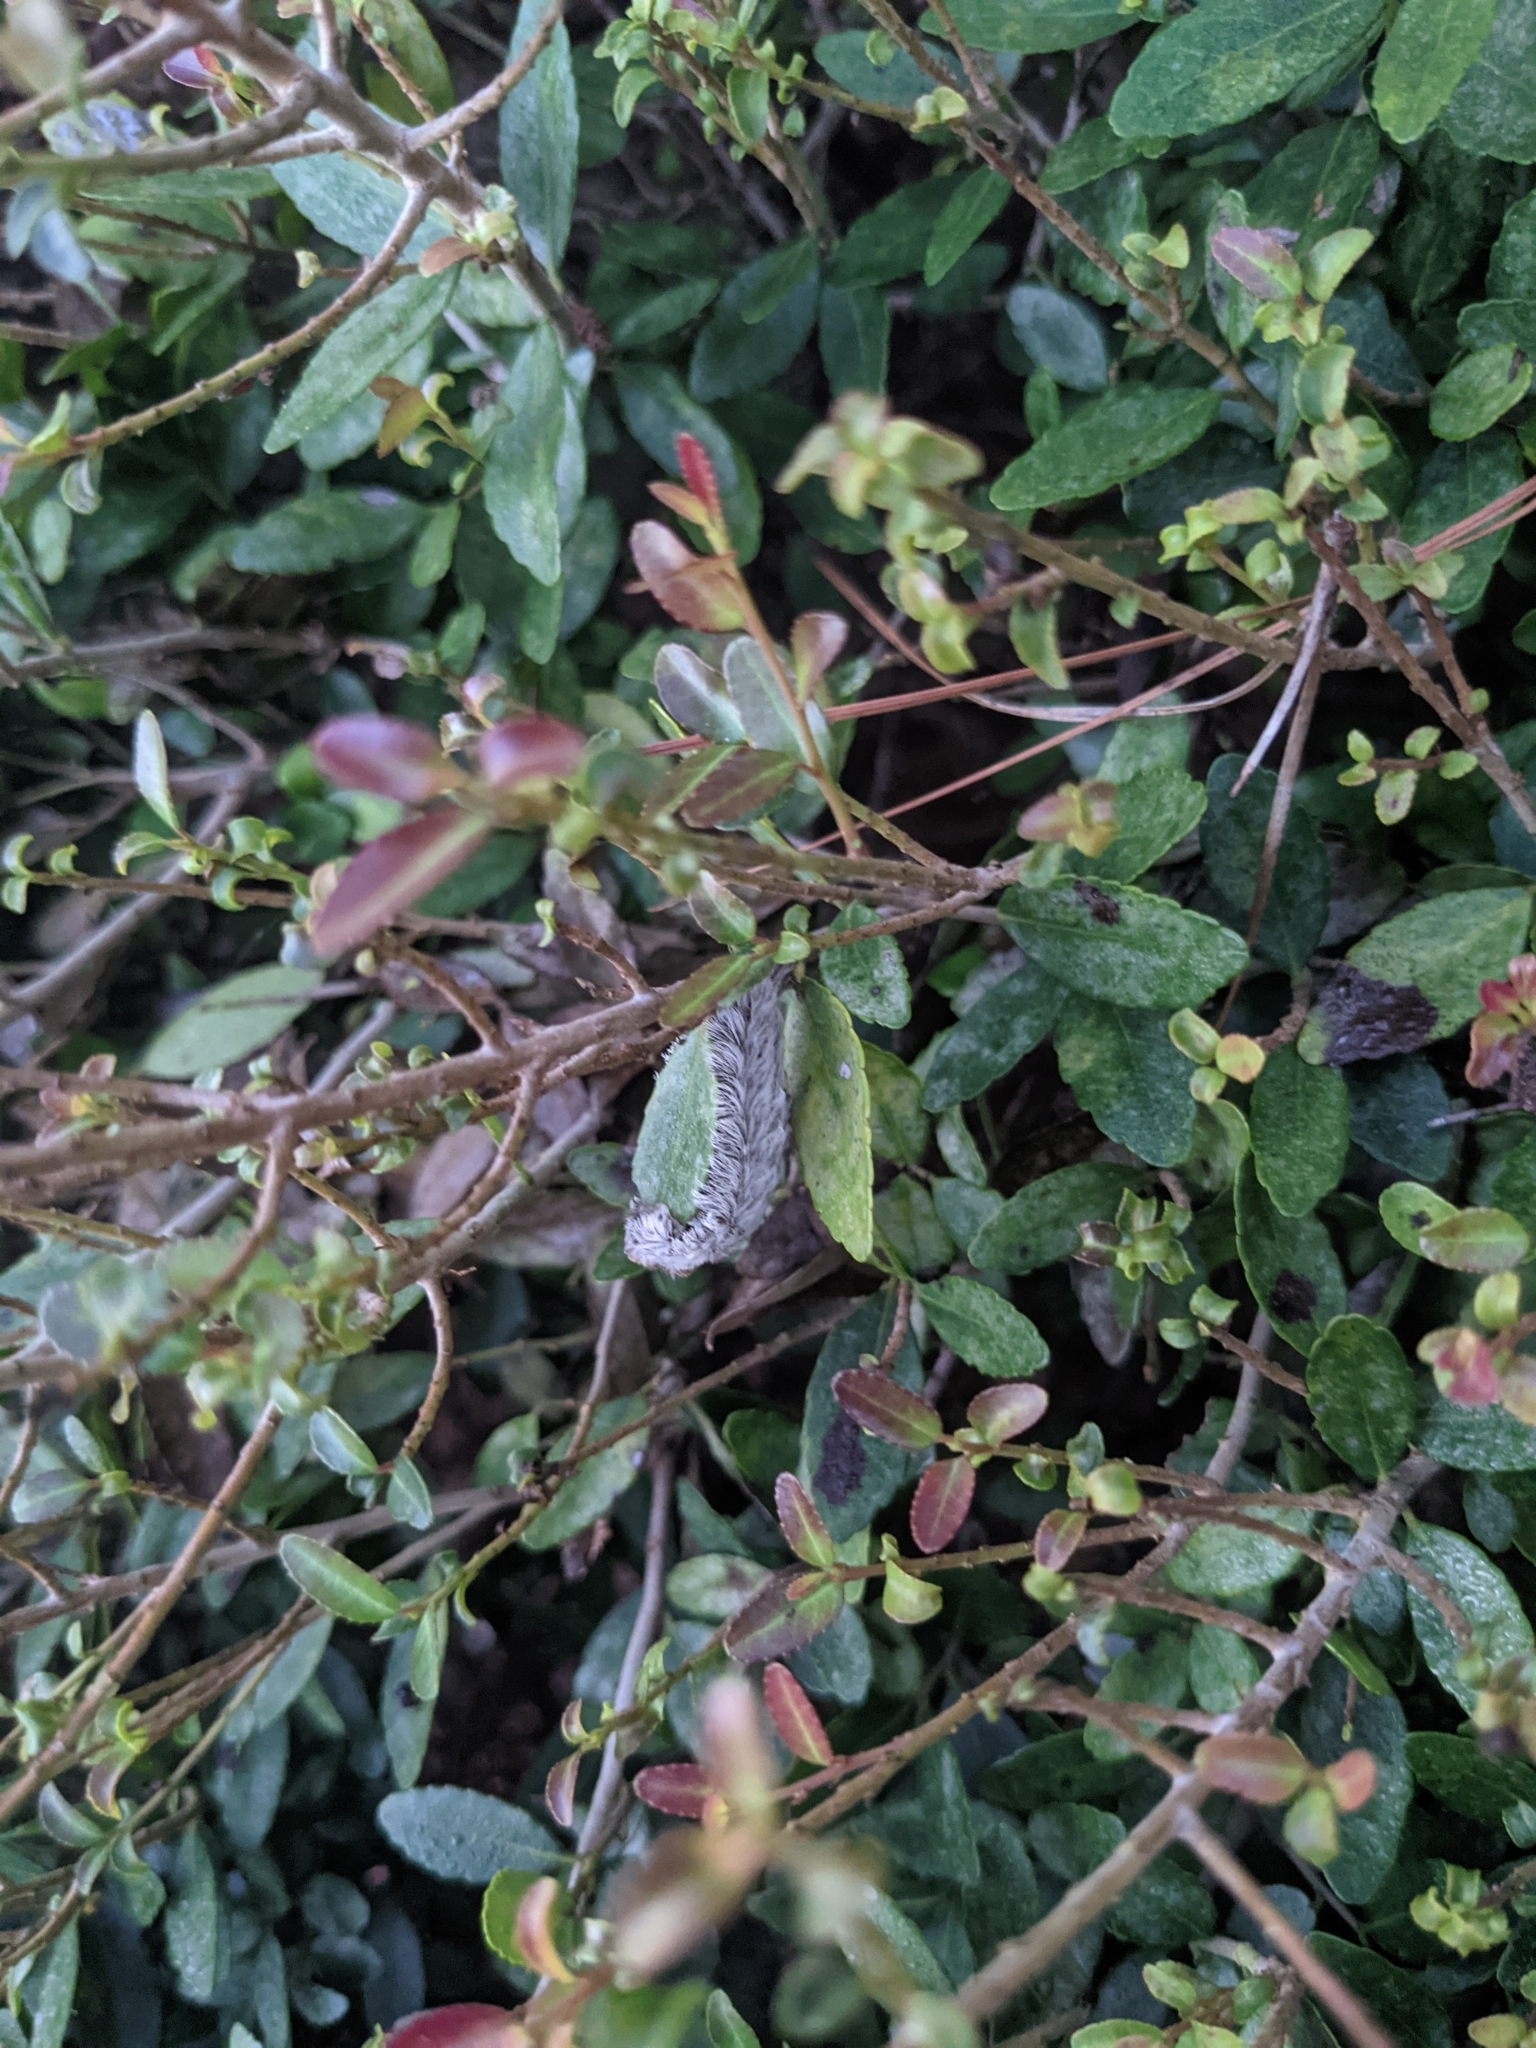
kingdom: Animalia
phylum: Arthropoda
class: Insecta
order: Lepidoptera
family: Megalopygidae
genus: Megalopyge
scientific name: Megalopyge opercularis
